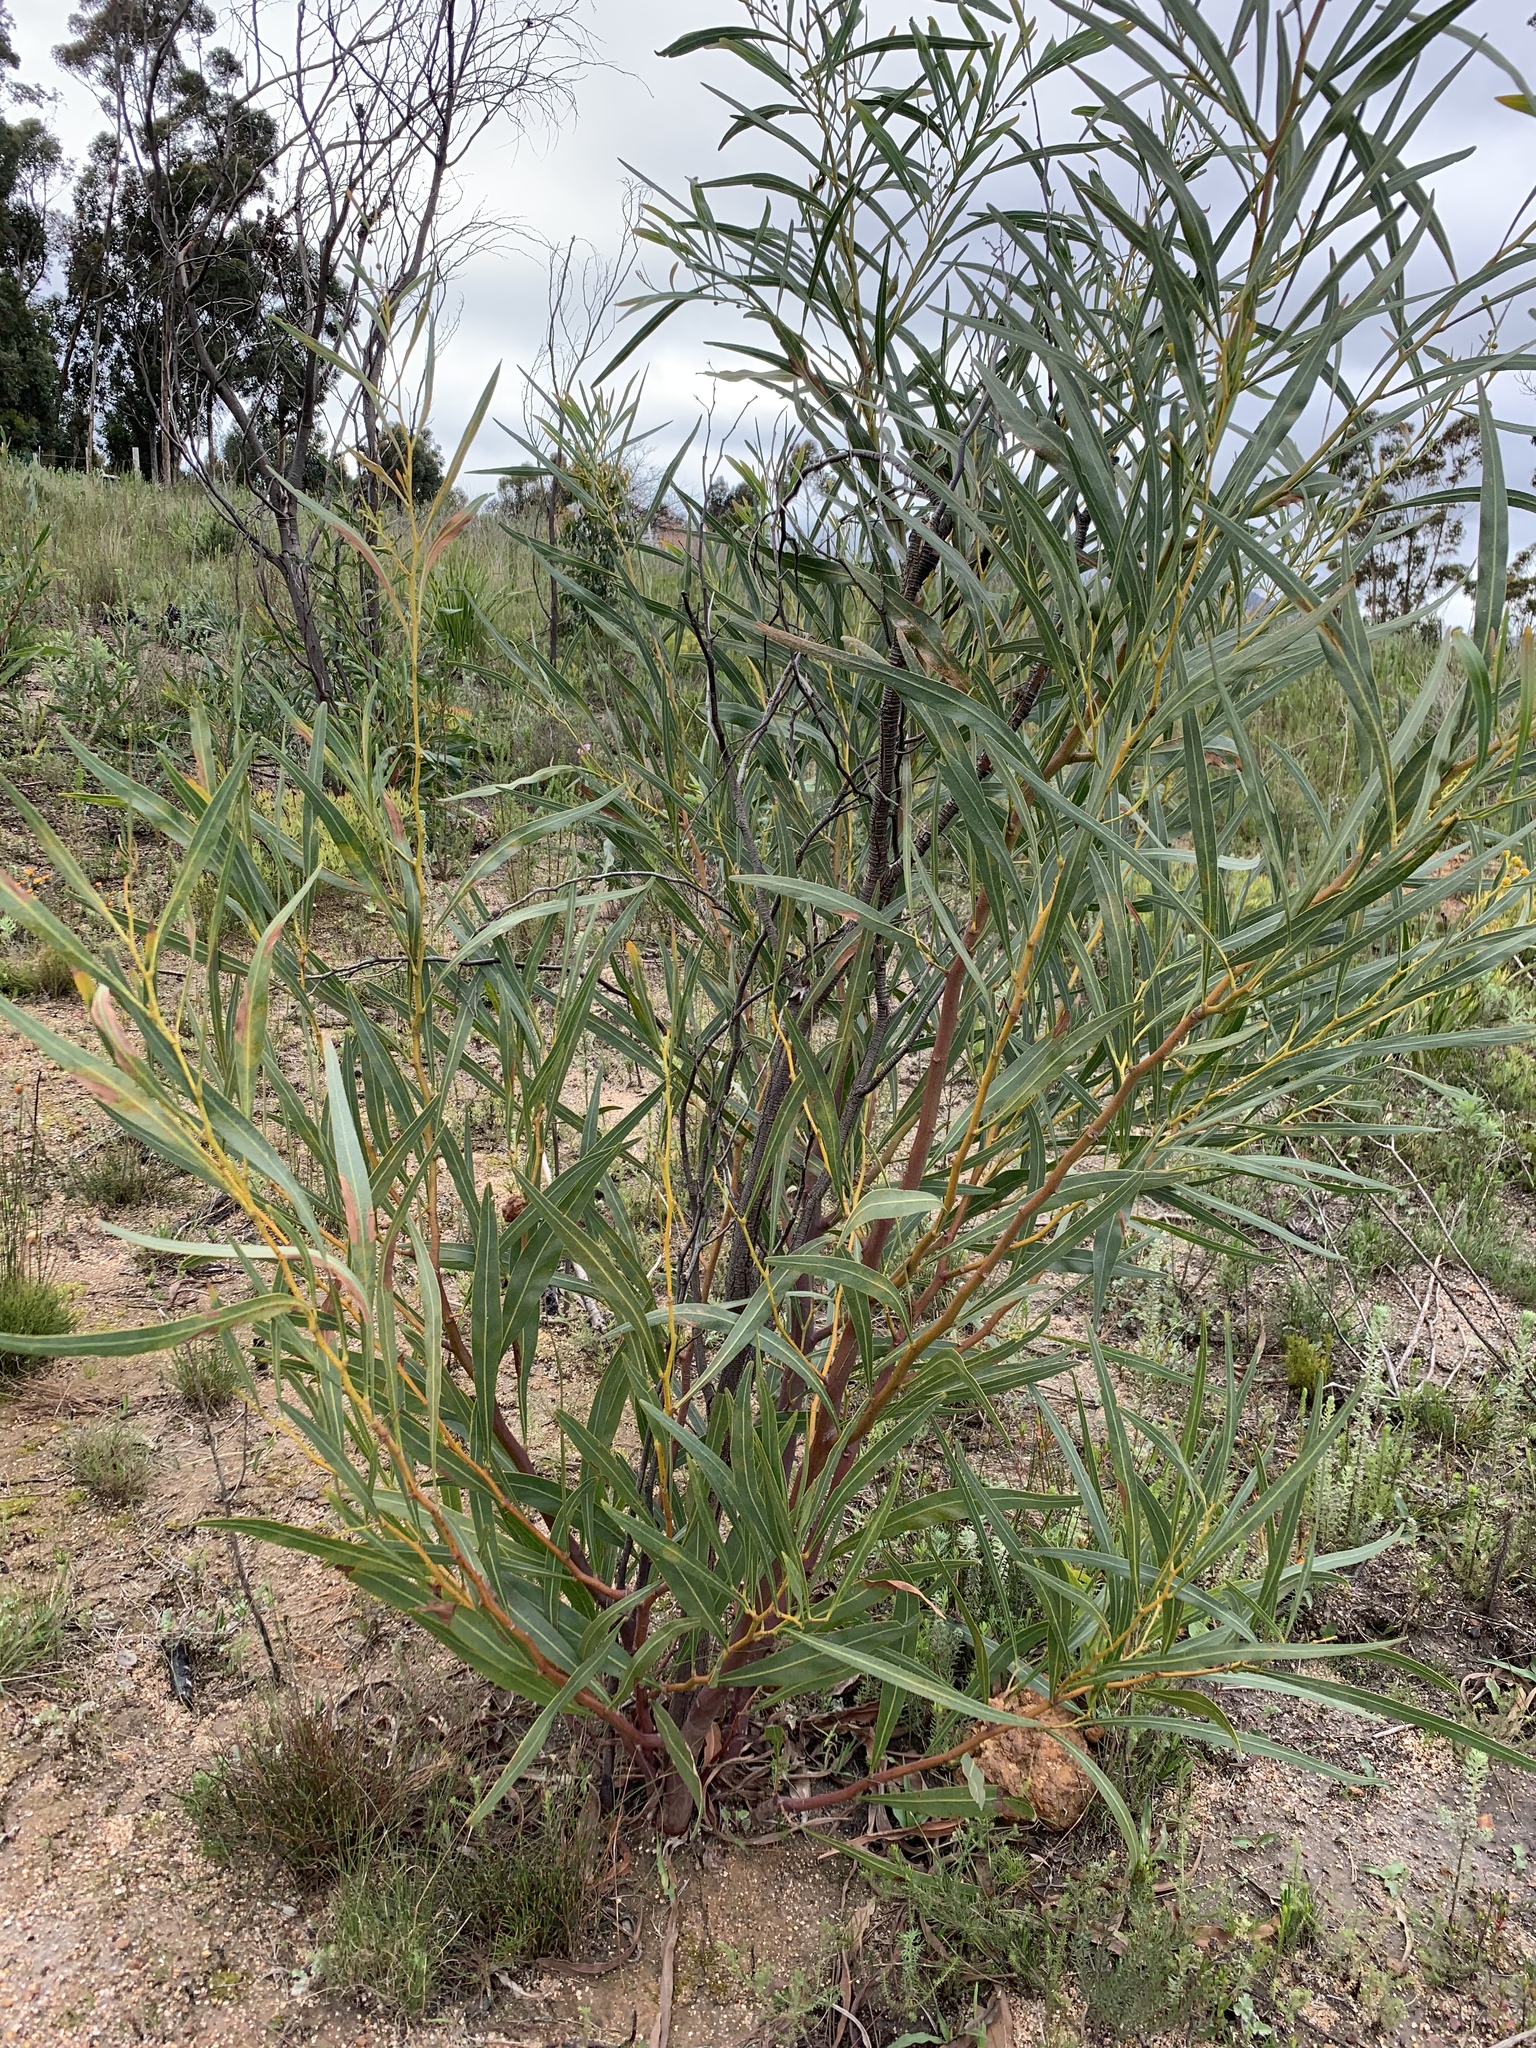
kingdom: Plantae
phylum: Tracheophyta
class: Magnoliopsida
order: Fabales
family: Fabaceae
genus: Acacia
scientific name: Acacia saligna
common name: Orange wattle
